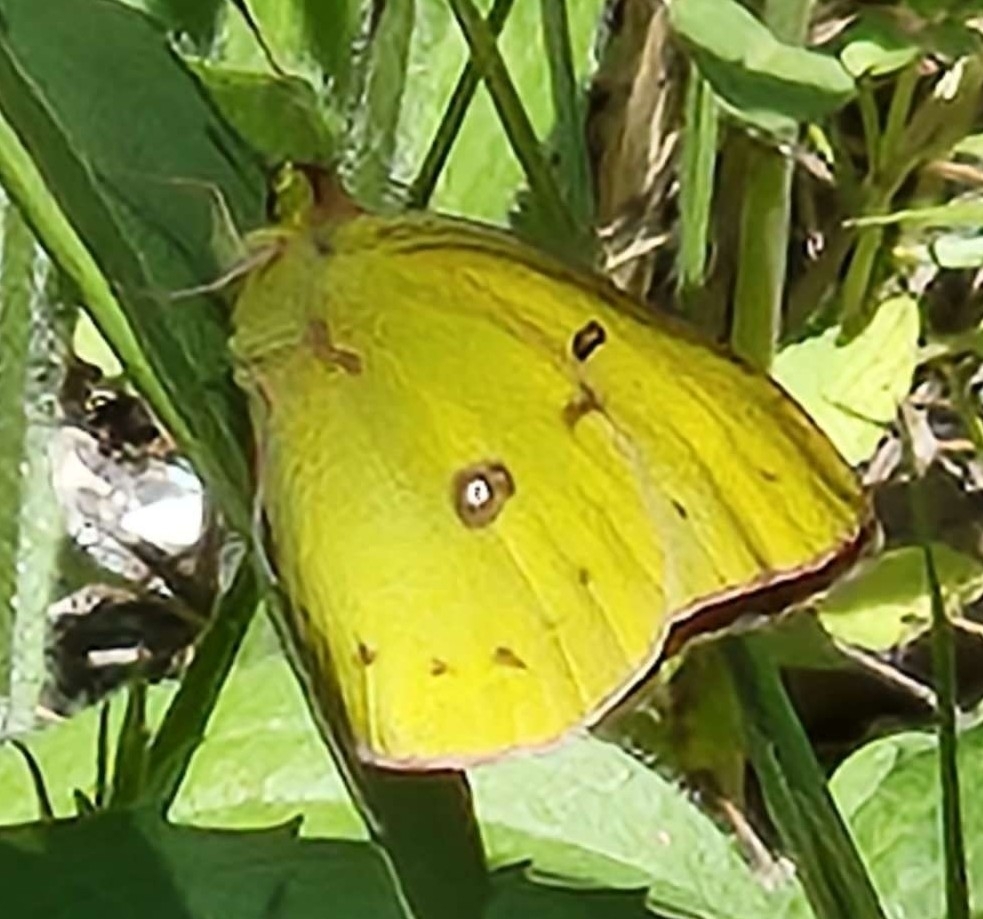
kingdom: Animalia
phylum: Arthropoda
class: Insecta
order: Lepidoptera
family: Pieridae
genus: Colias
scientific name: Colias eurytheme
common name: Alfalfa butterfly
